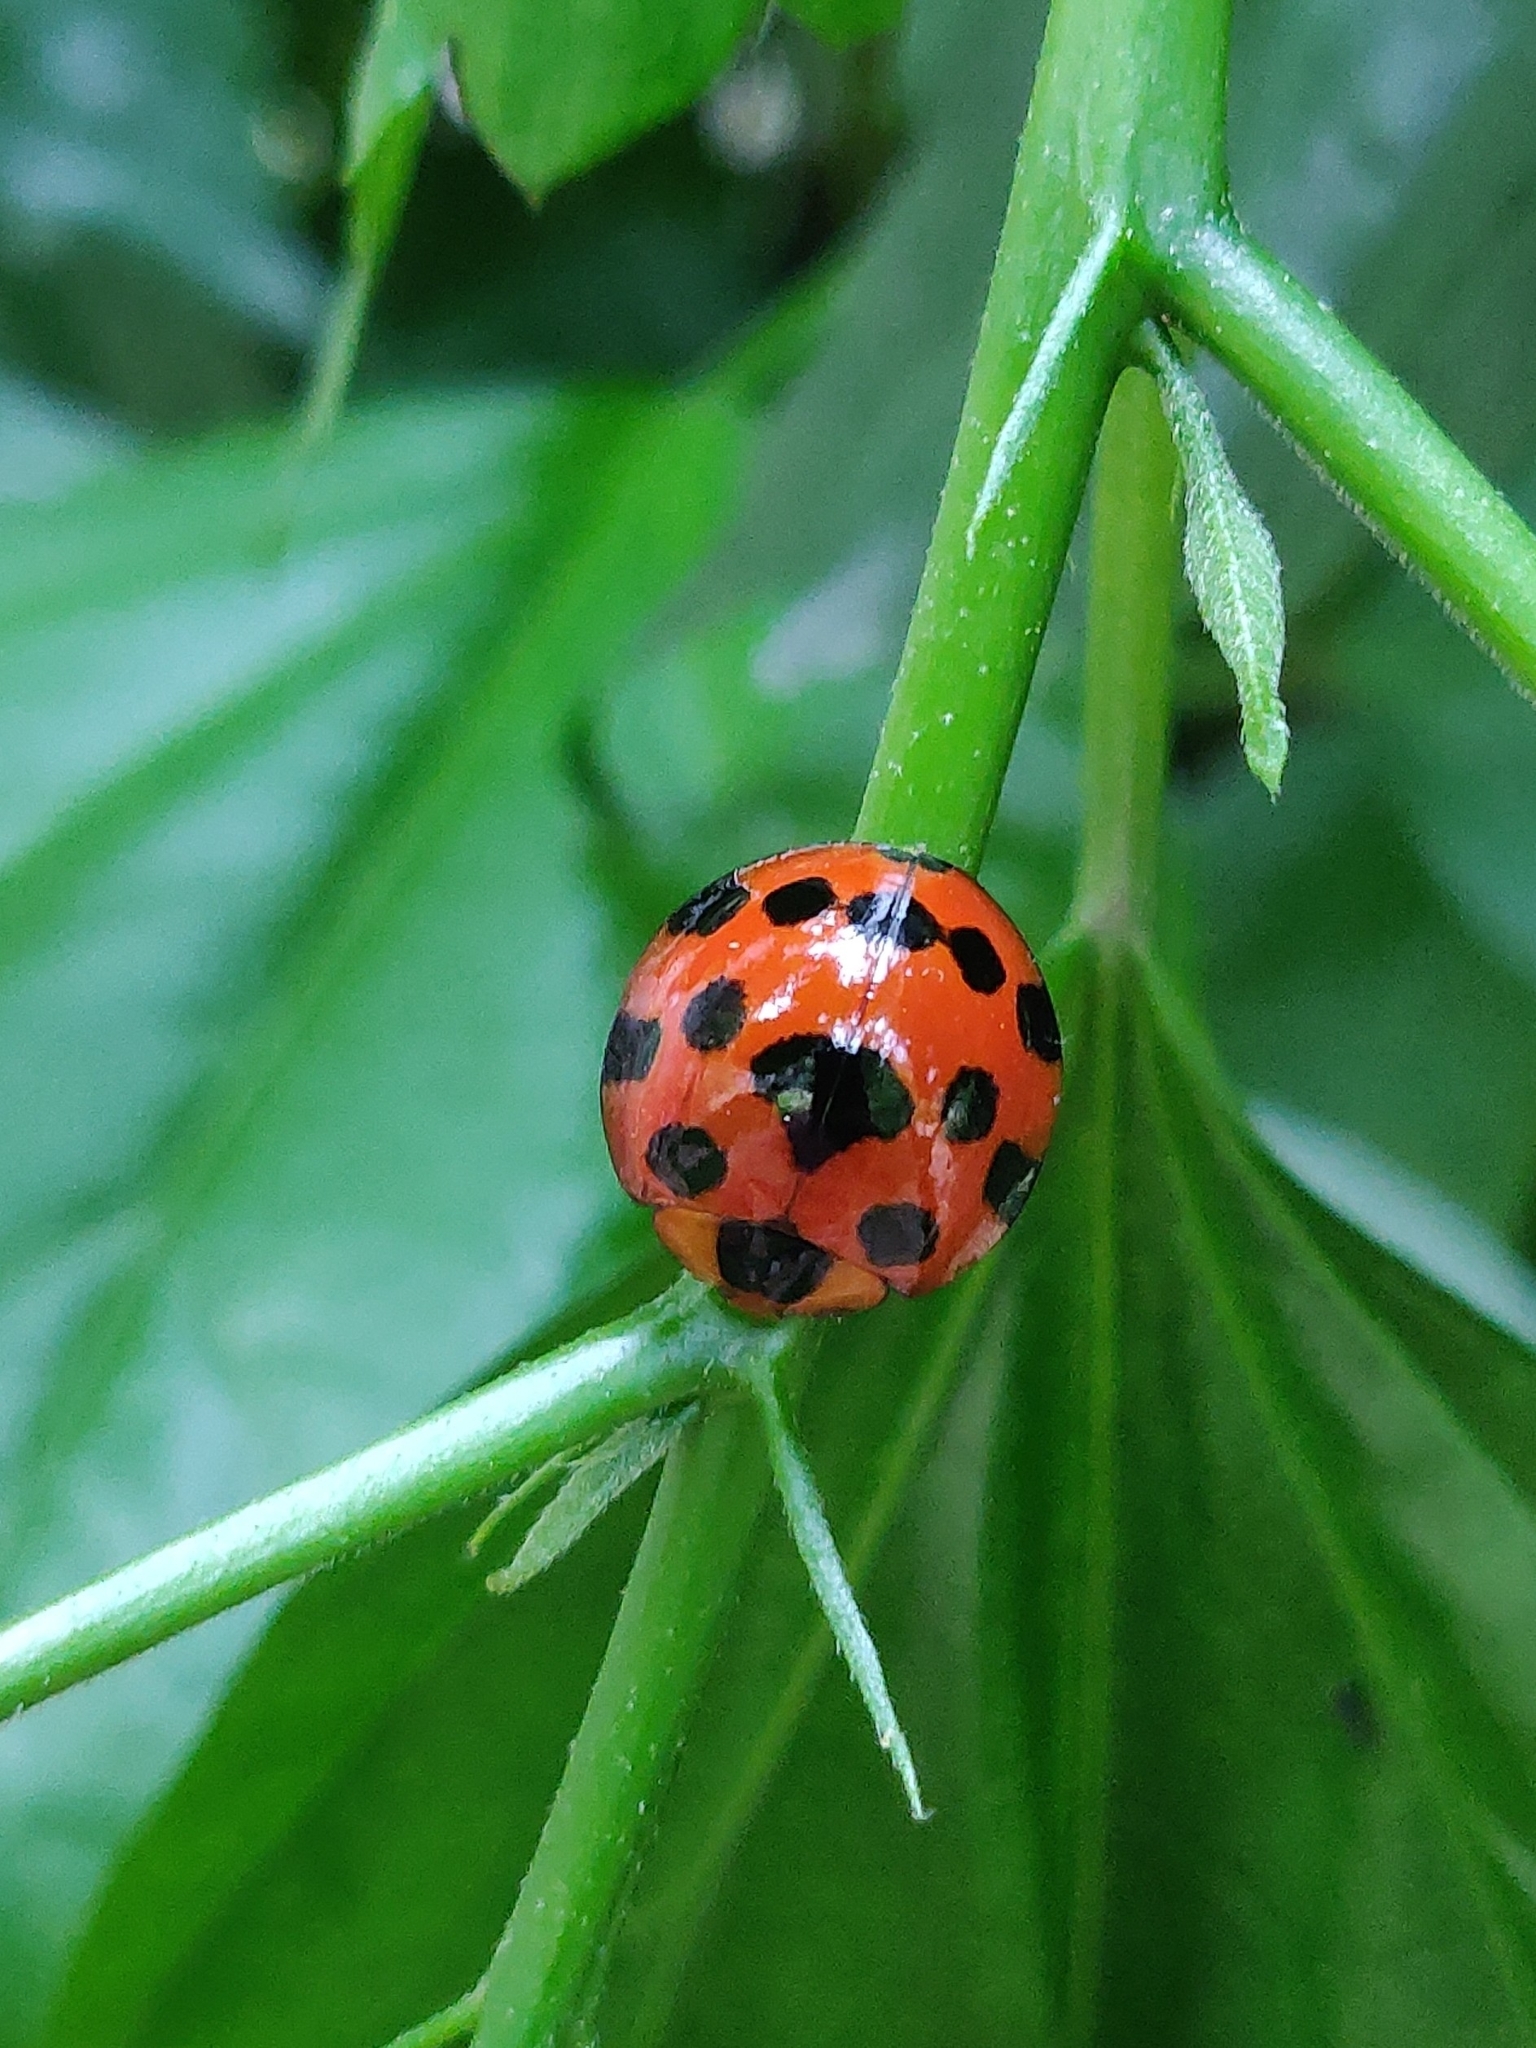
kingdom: Animalia
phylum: Arthropoda
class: Insecta
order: Coleoptera
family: Coccinellidae
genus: Synonycha
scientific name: Synonycha grandis
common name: Lady beetle
